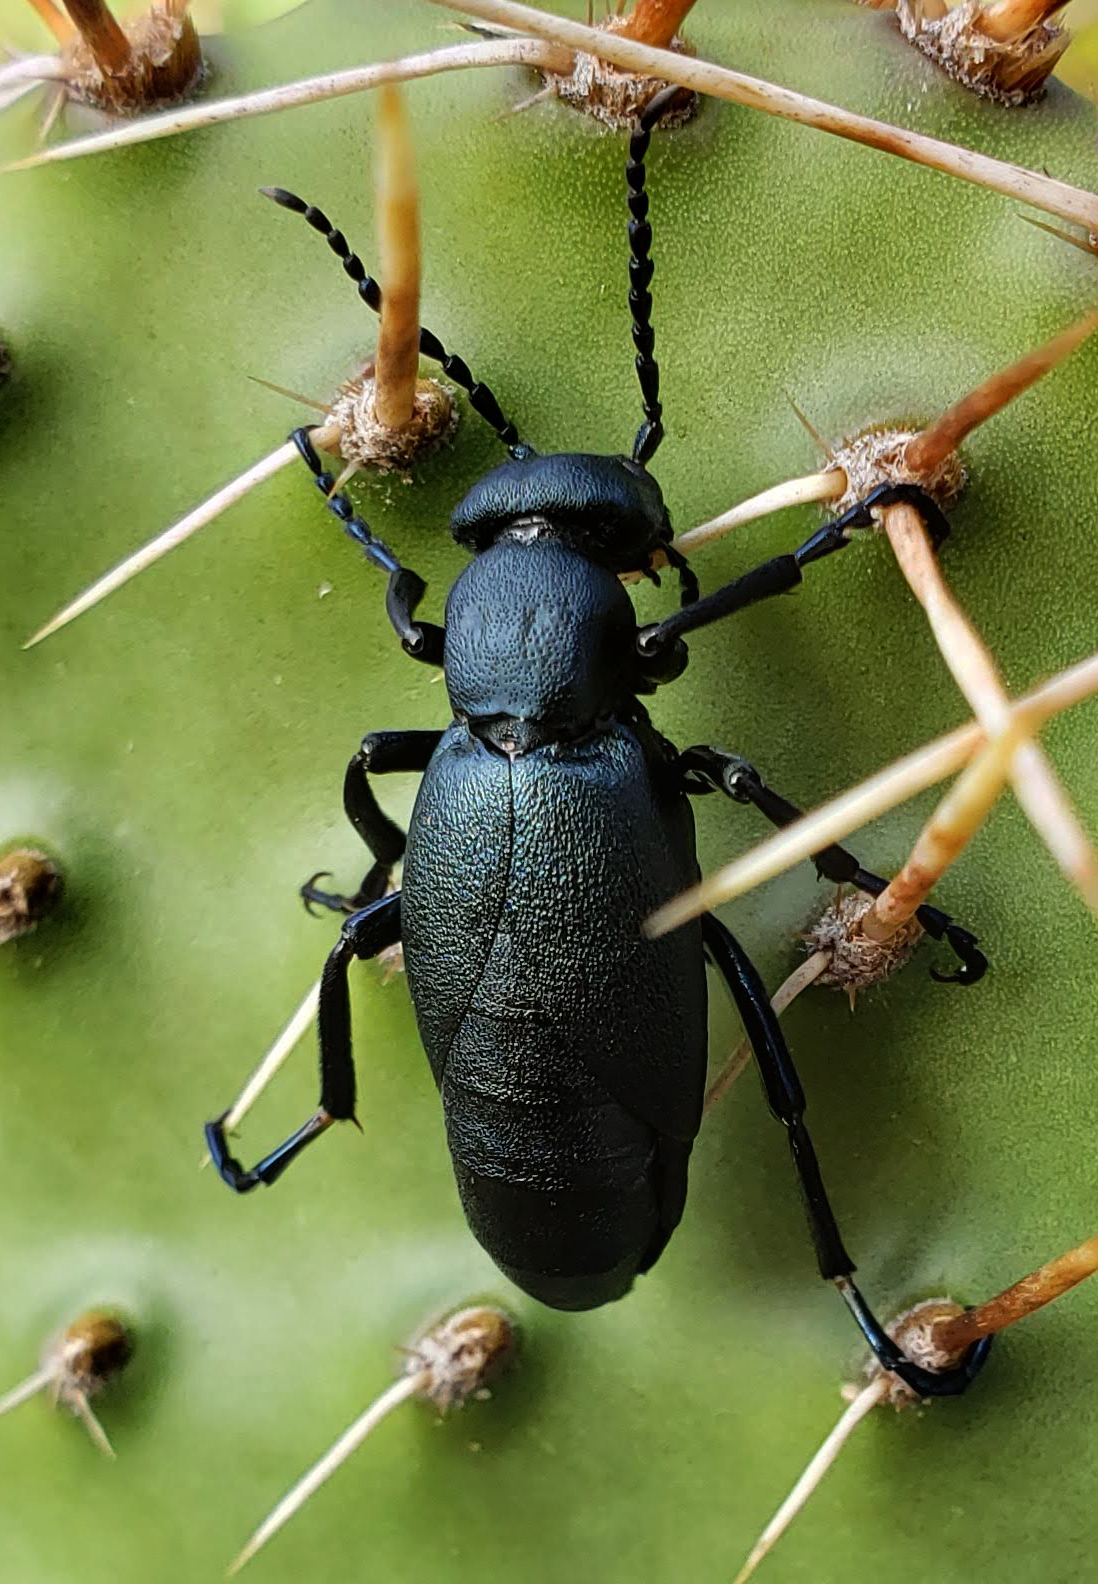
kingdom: Animalia
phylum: Arthropoda
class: Insecta
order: Coleoptera
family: Meloidae
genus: Meloe
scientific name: Meloe campanicollis
